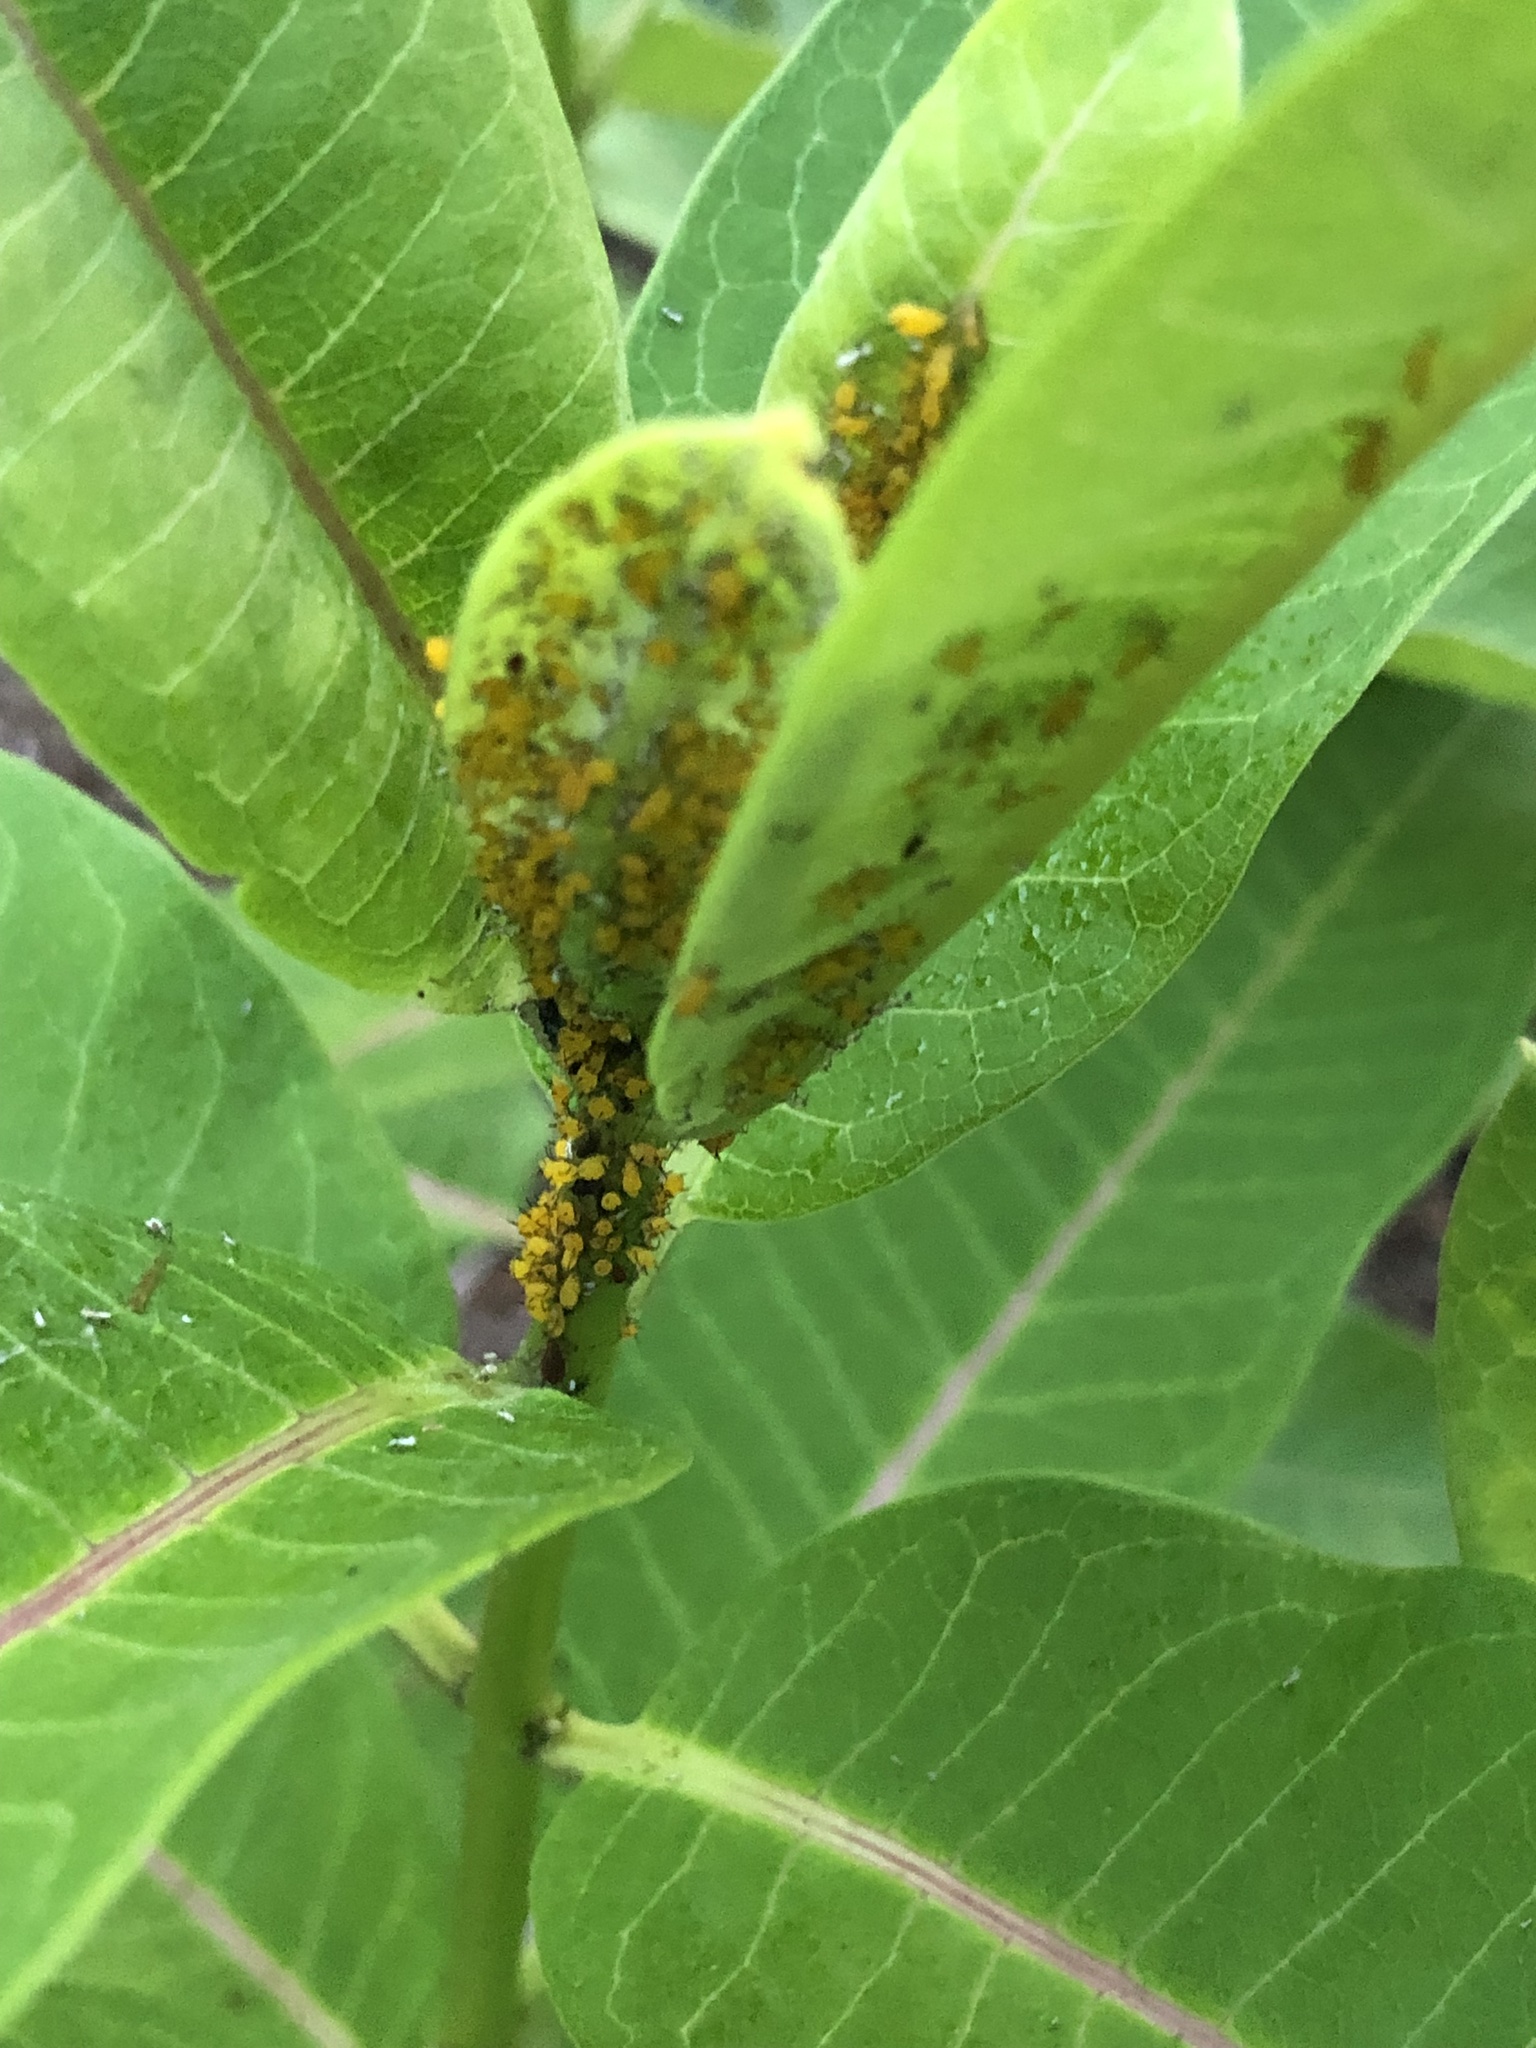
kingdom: Animalia
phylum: Arthropoda
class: Insecta
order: Hemiptera
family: Aphididae
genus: Aphis
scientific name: Aphis nerii
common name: Oleander aphid
